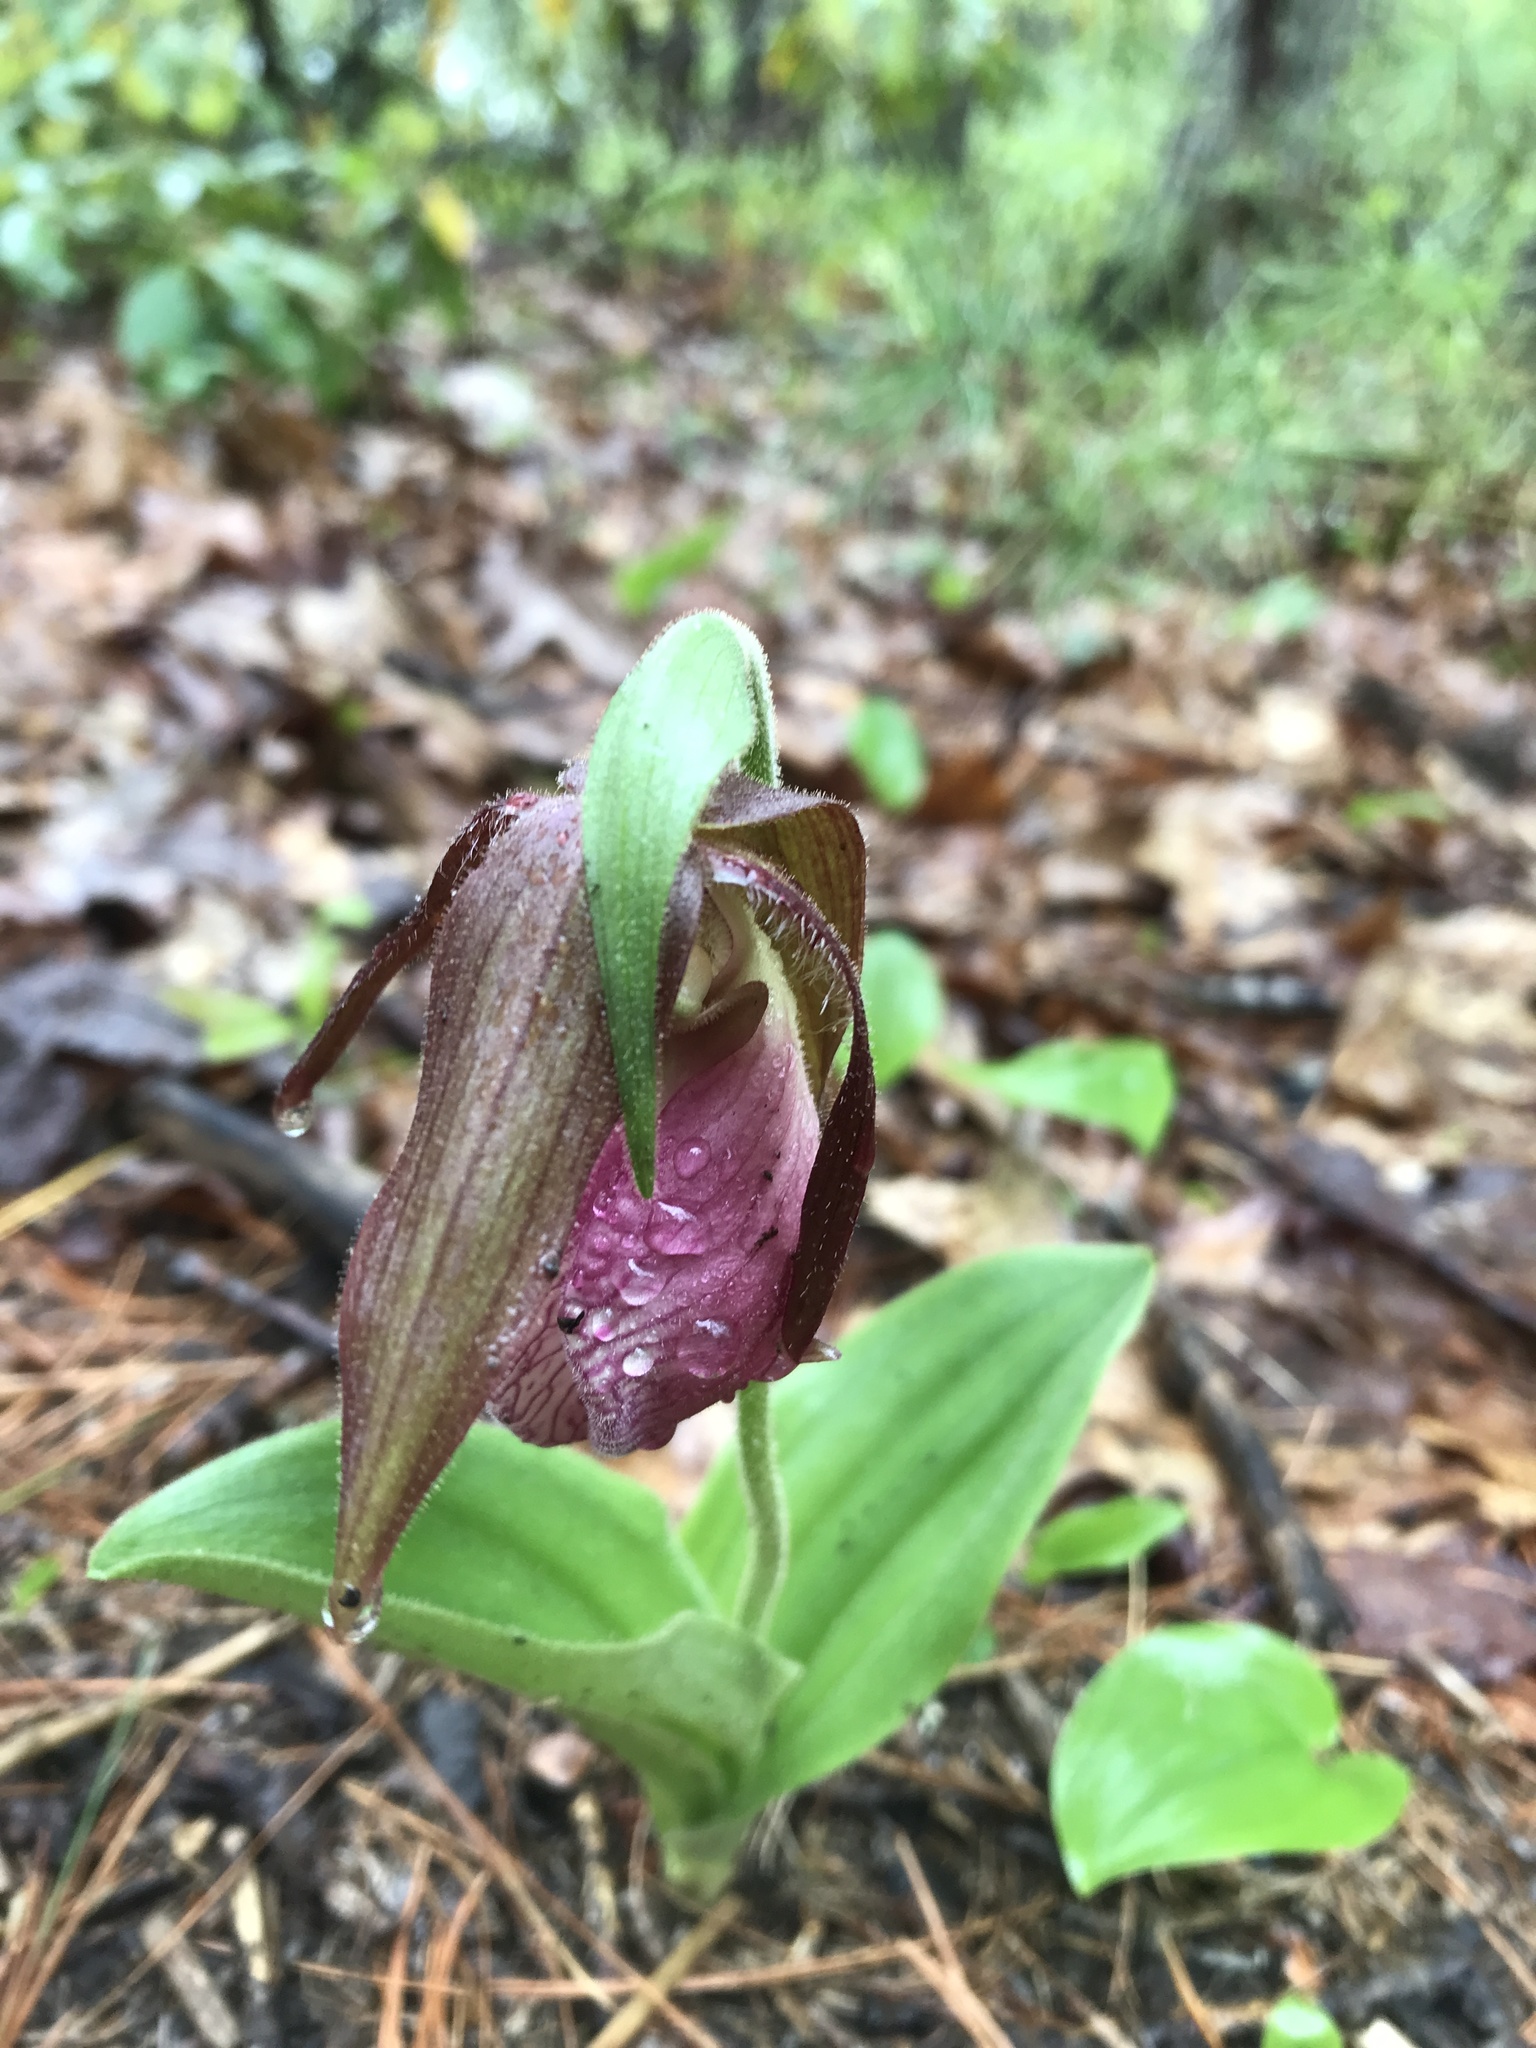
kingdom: Plantae
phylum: Tracheophyta
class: Liliopsida
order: Asparagales
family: Orchidaceae
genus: Cypripedium
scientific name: Cypripedium acaule
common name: Pink lady's-slipper
